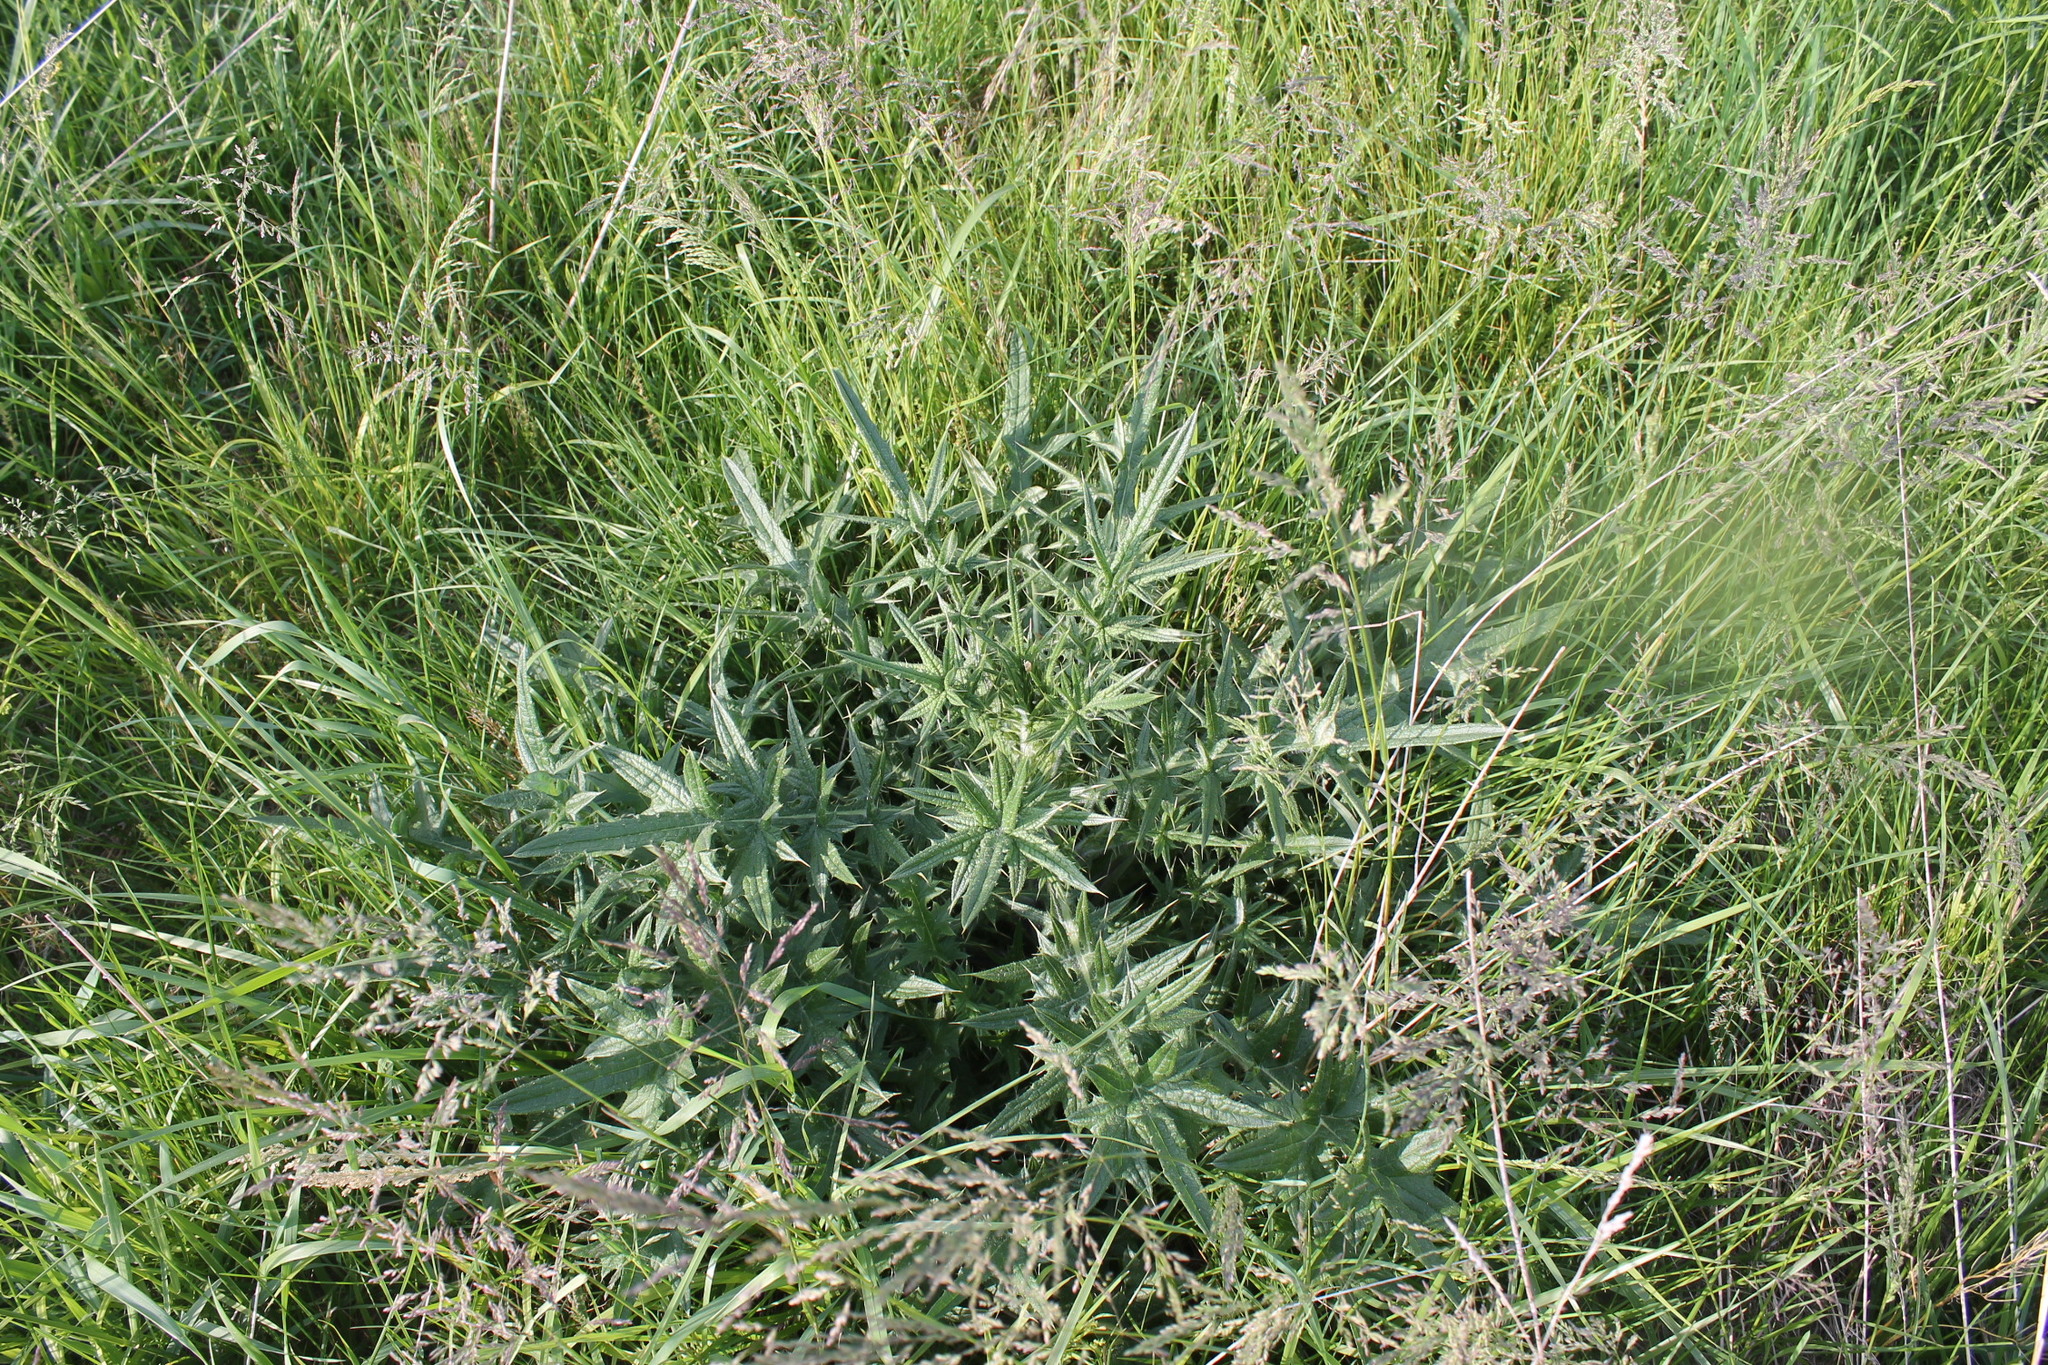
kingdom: Plantae
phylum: Tracheophyta
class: Magnoliopsida
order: Asterales
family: Asteraceae
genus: Cirsium
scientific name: Cirsium vulgare
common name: Bull thistle
